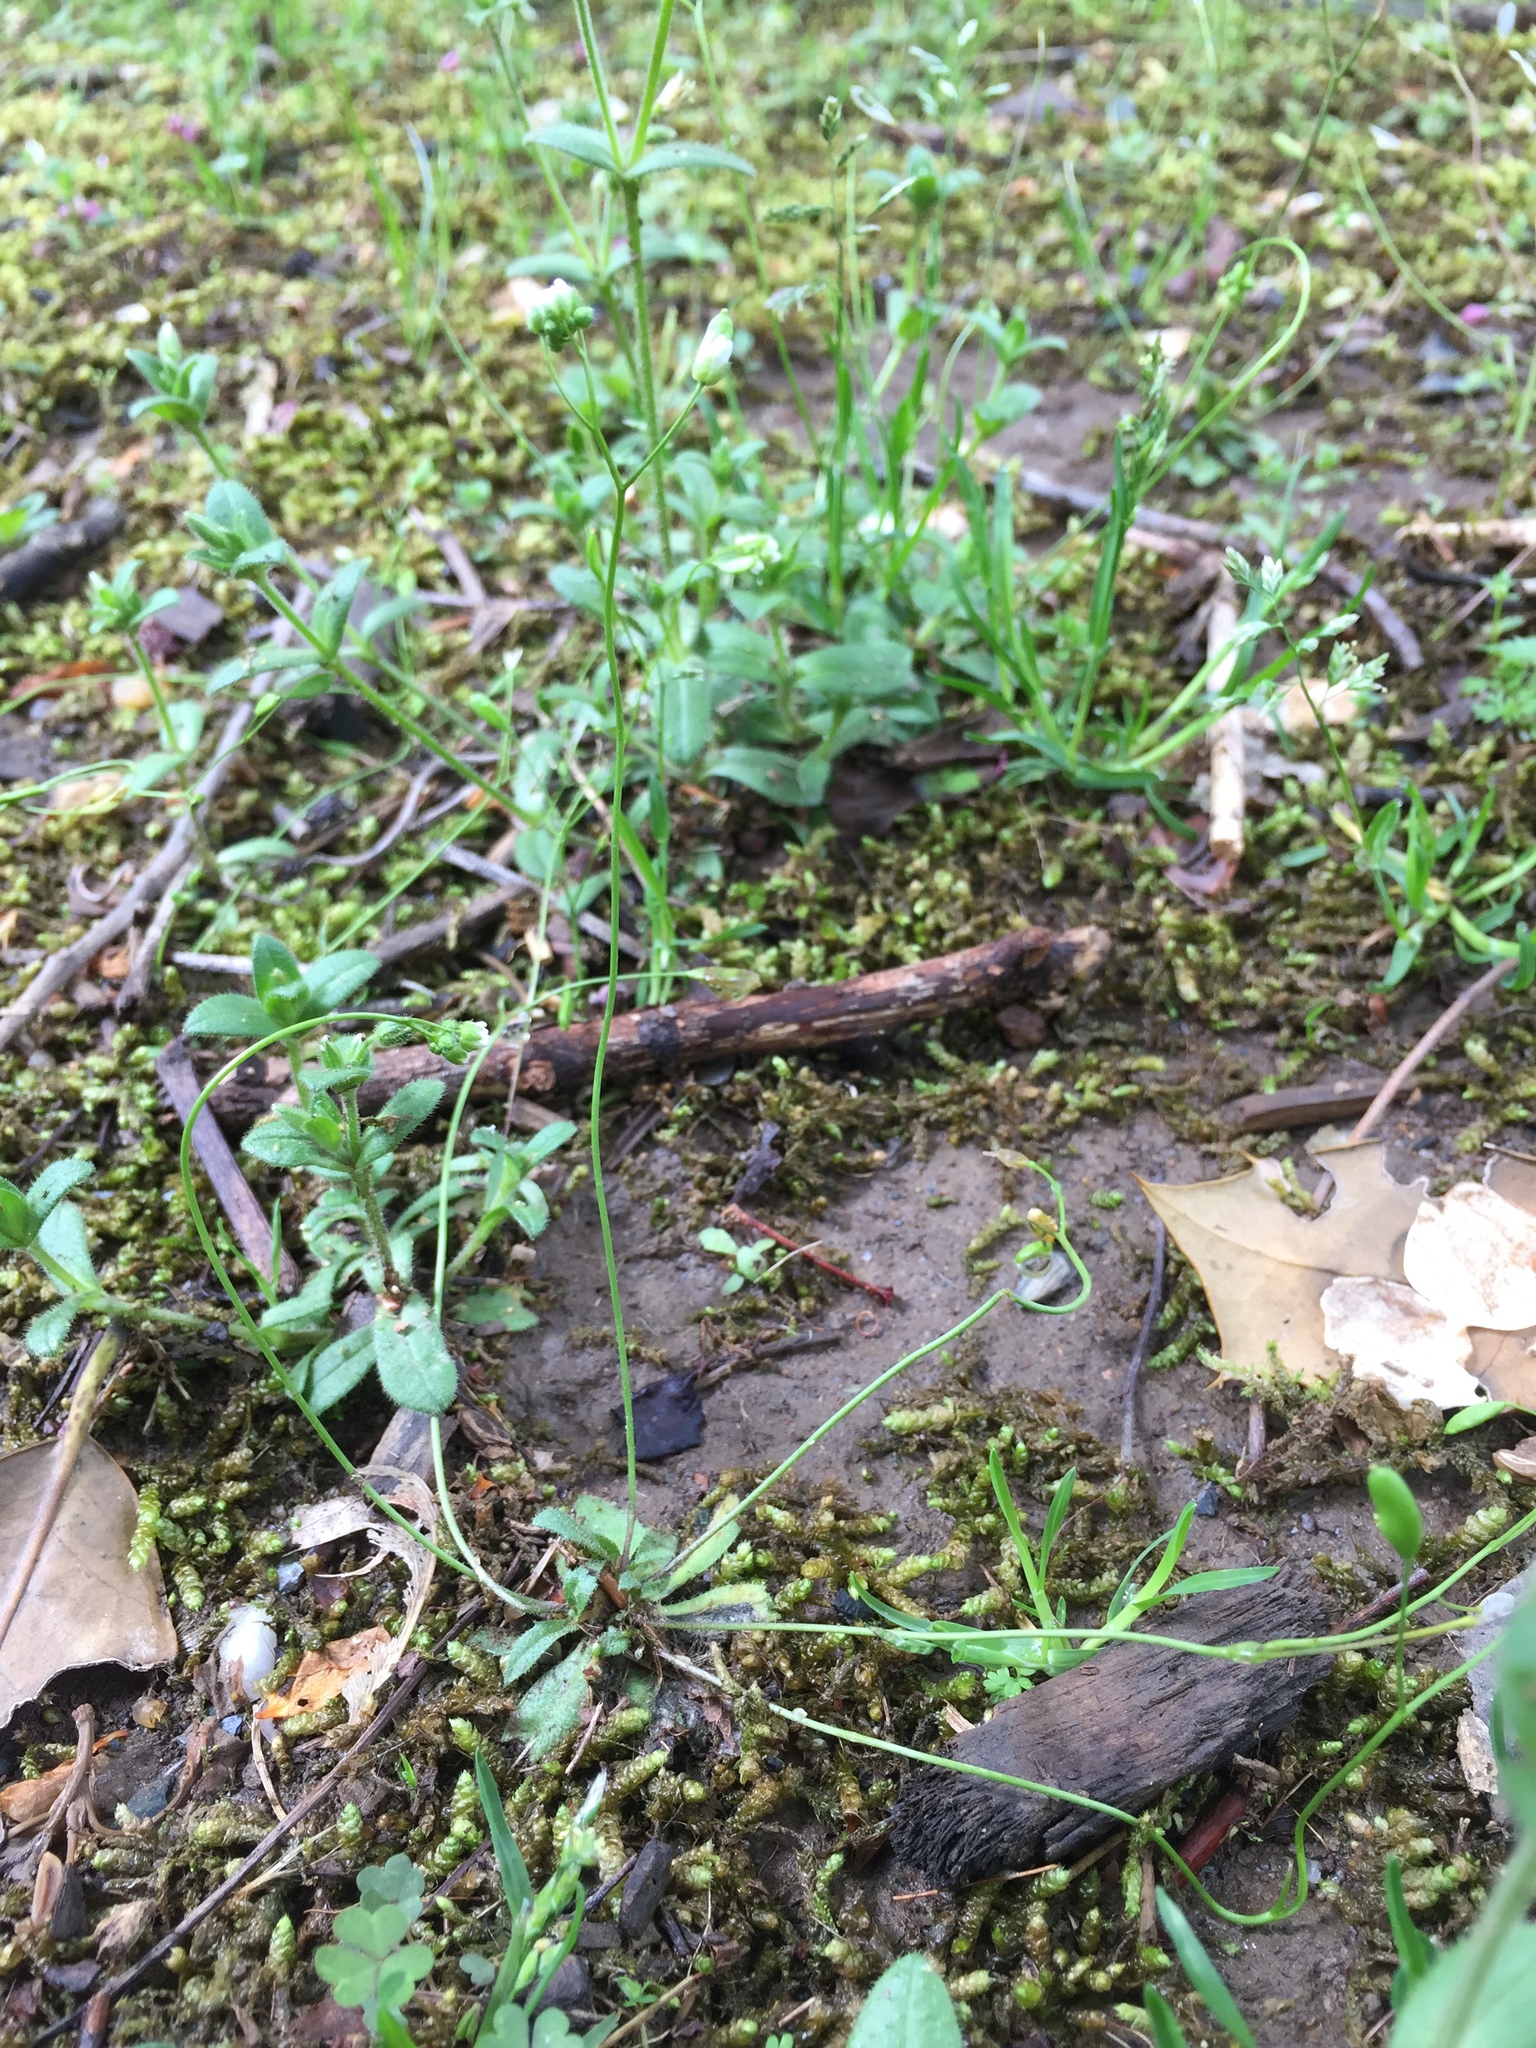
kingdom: Plantae
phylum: Tracheophyta
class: Magnoliopsida
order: Brassicales
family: Brassicaceae
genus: Draba
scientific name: Draba verna
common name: Spring draba
